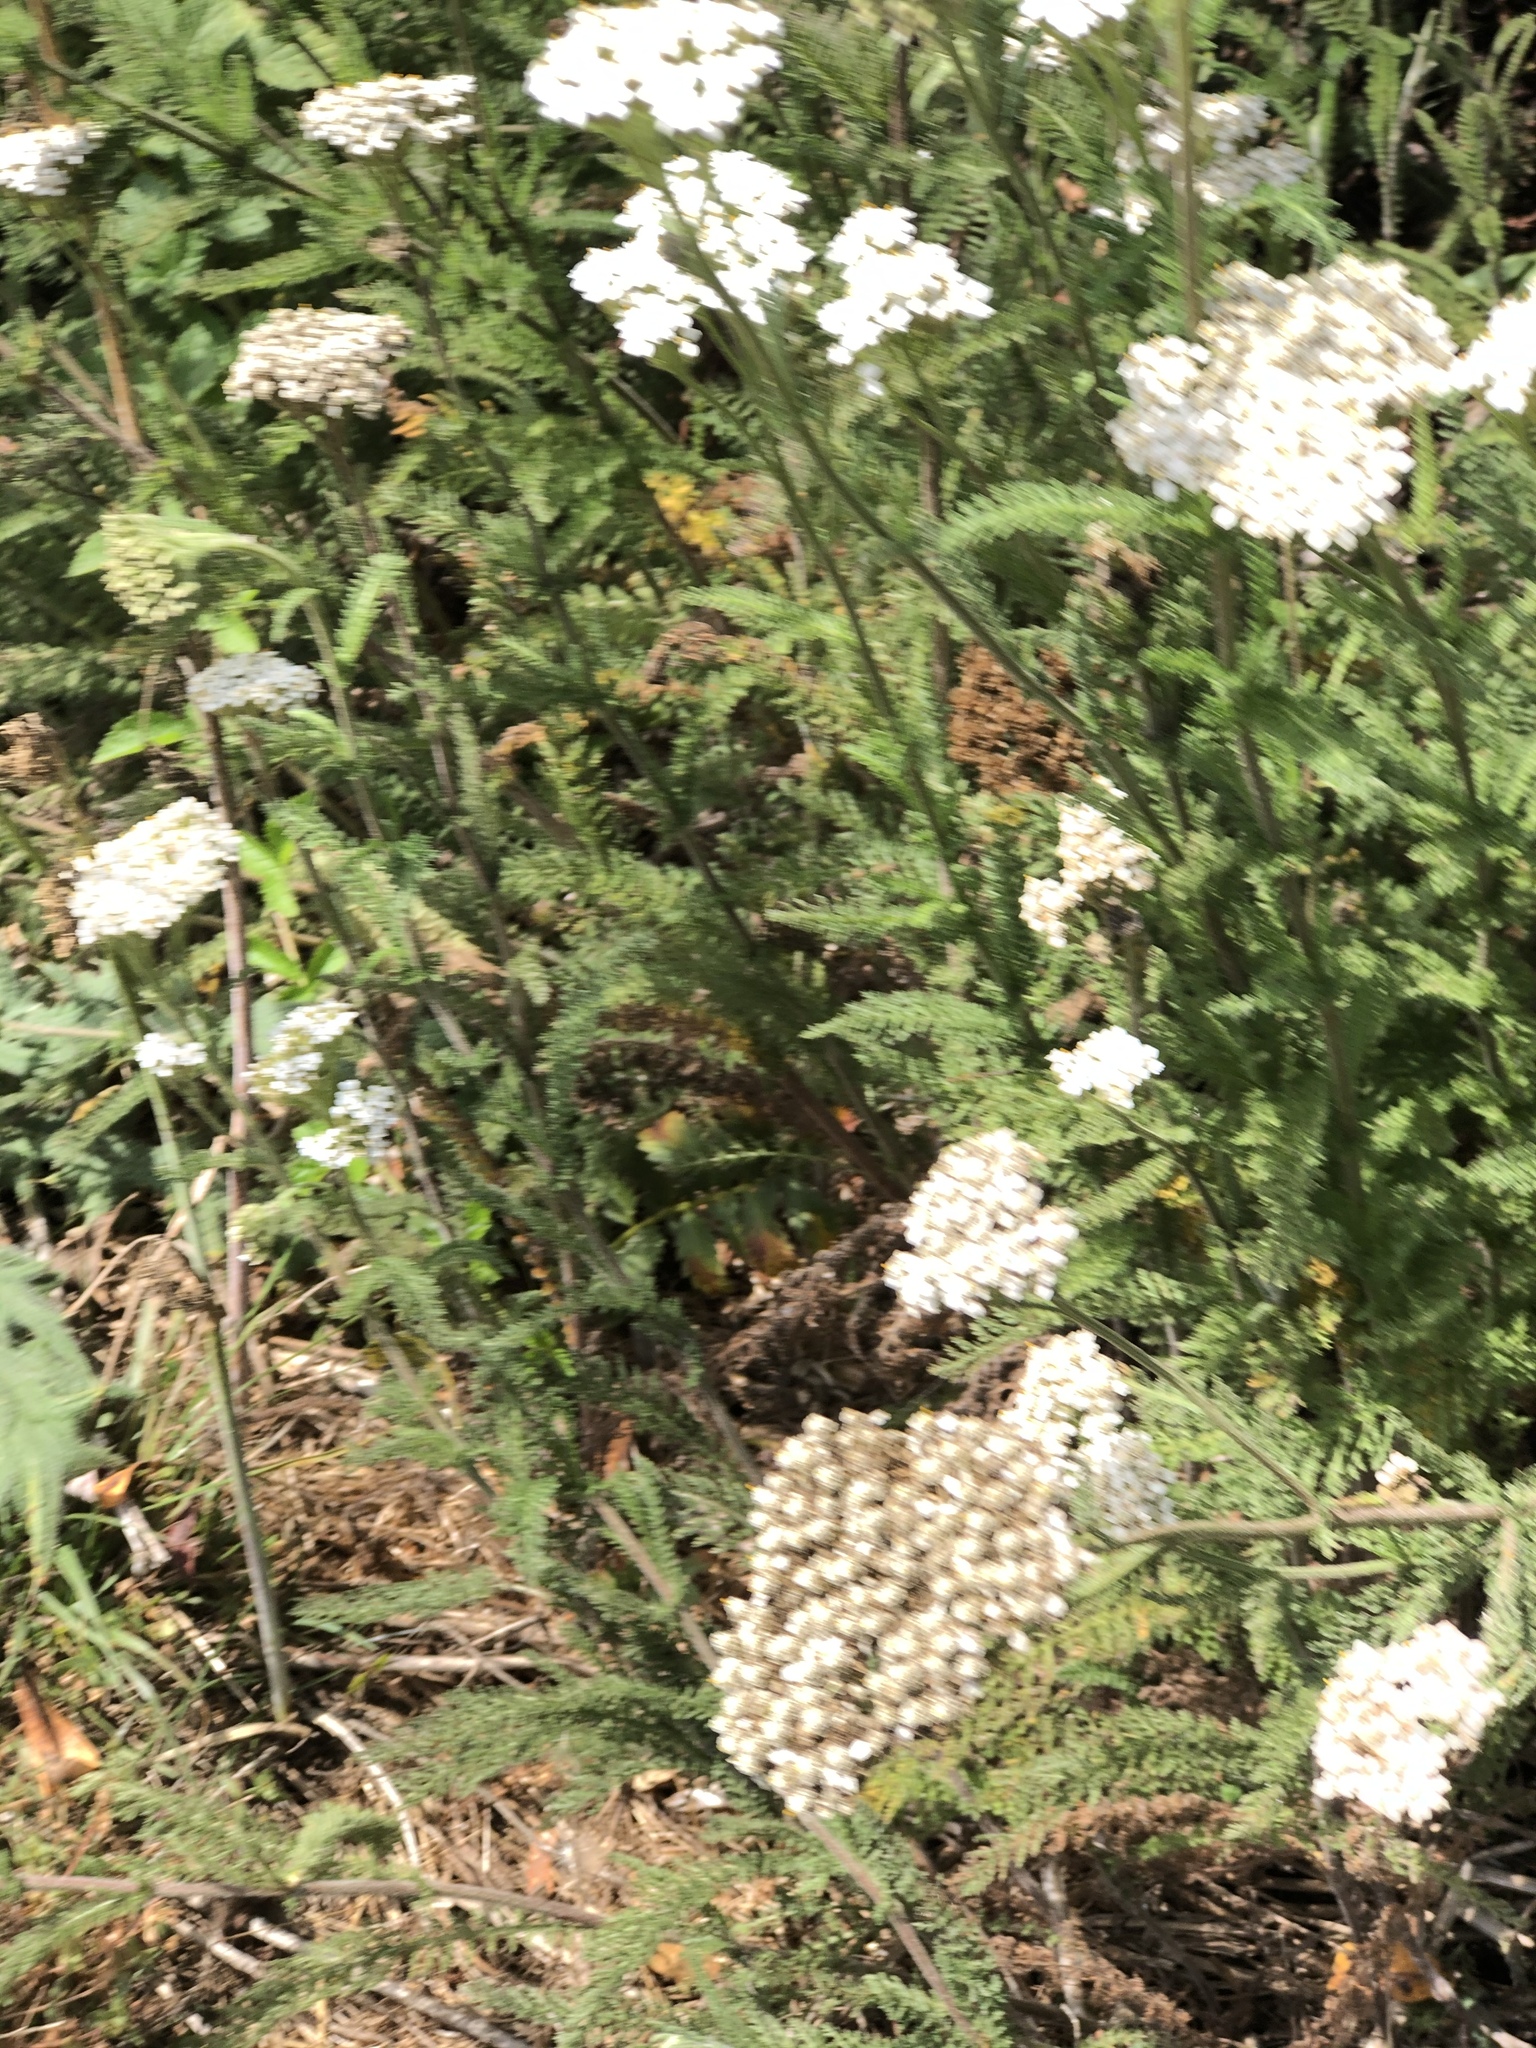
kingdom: Plantae
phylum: Tracheophyta
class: Magnoliopsida
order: Asterales
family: Asteraceae
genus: Achillea
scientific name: Achillea millefolium
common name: Yarrow
